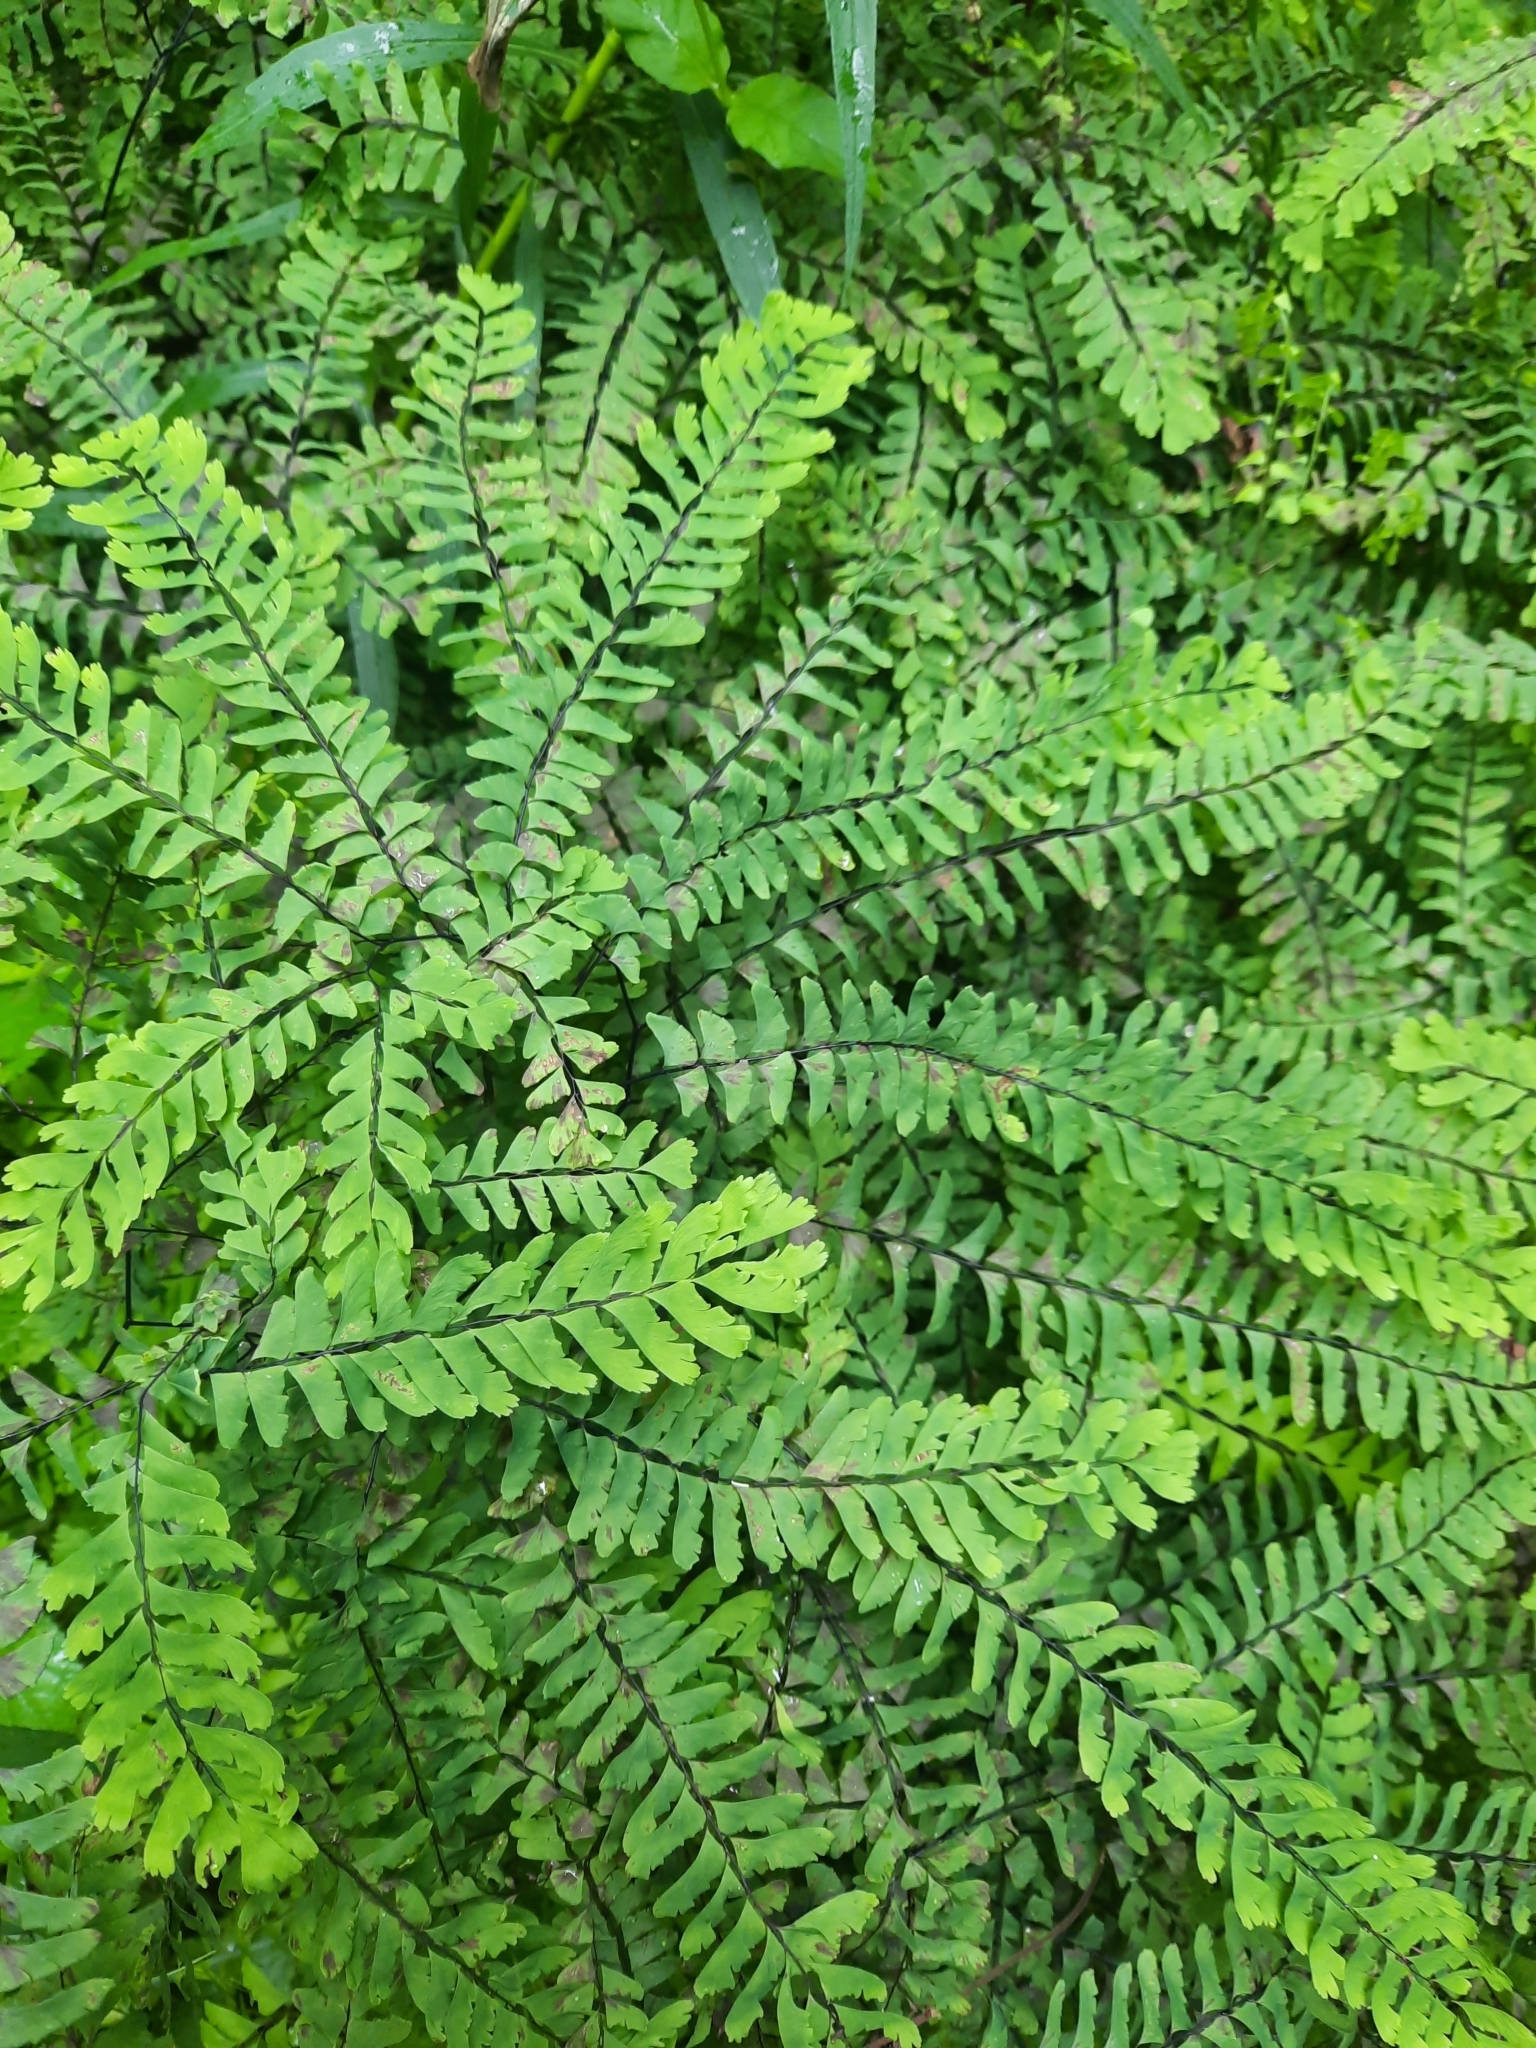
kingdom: Plantae
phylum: Tracheophyta
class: Polypodiopsida
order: Polypodiales
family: Pteridaceae
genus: Adiantum
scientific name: Adiantum pedatum
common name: Five-finger fern
